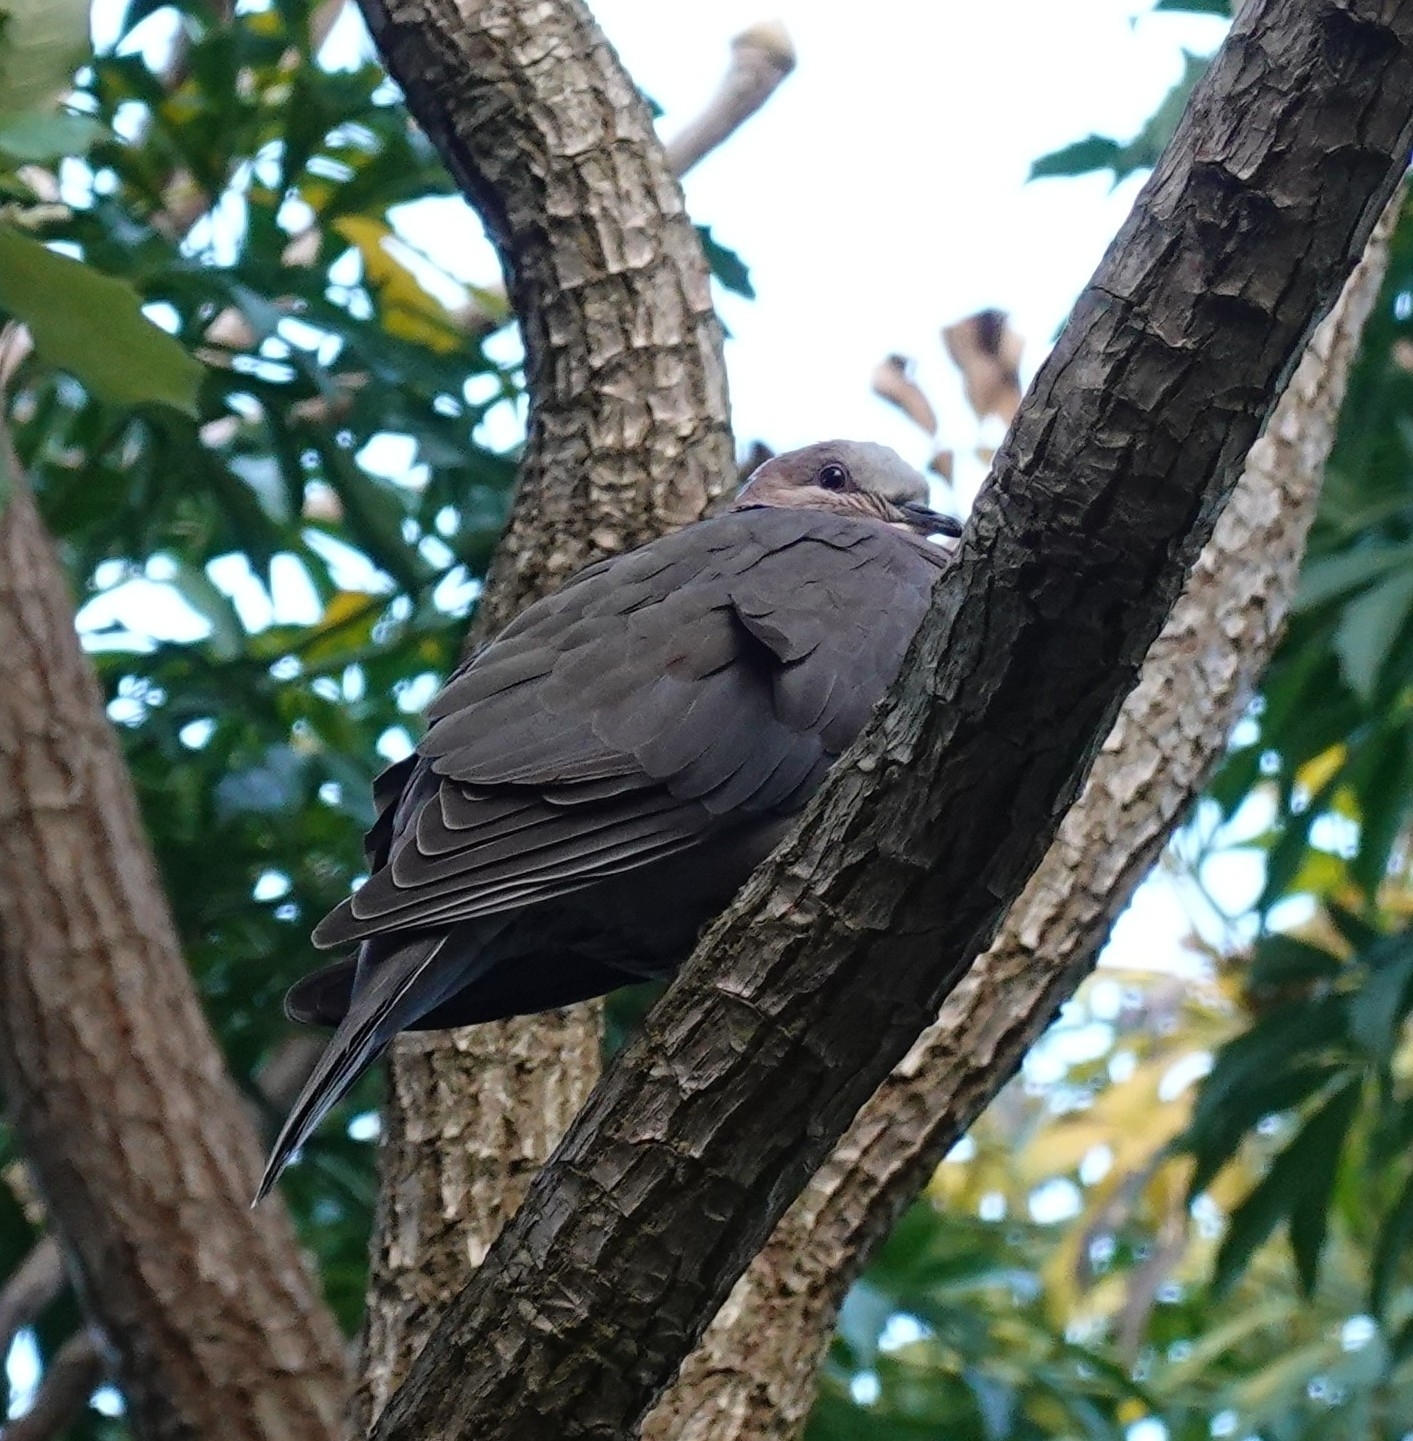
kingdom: Animalia
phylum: Chordata
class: Aves
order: Columbiformes
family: Columbidae
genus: Streptopelia
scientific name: Streptopelia semitorquata
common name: Red-eyed dove
